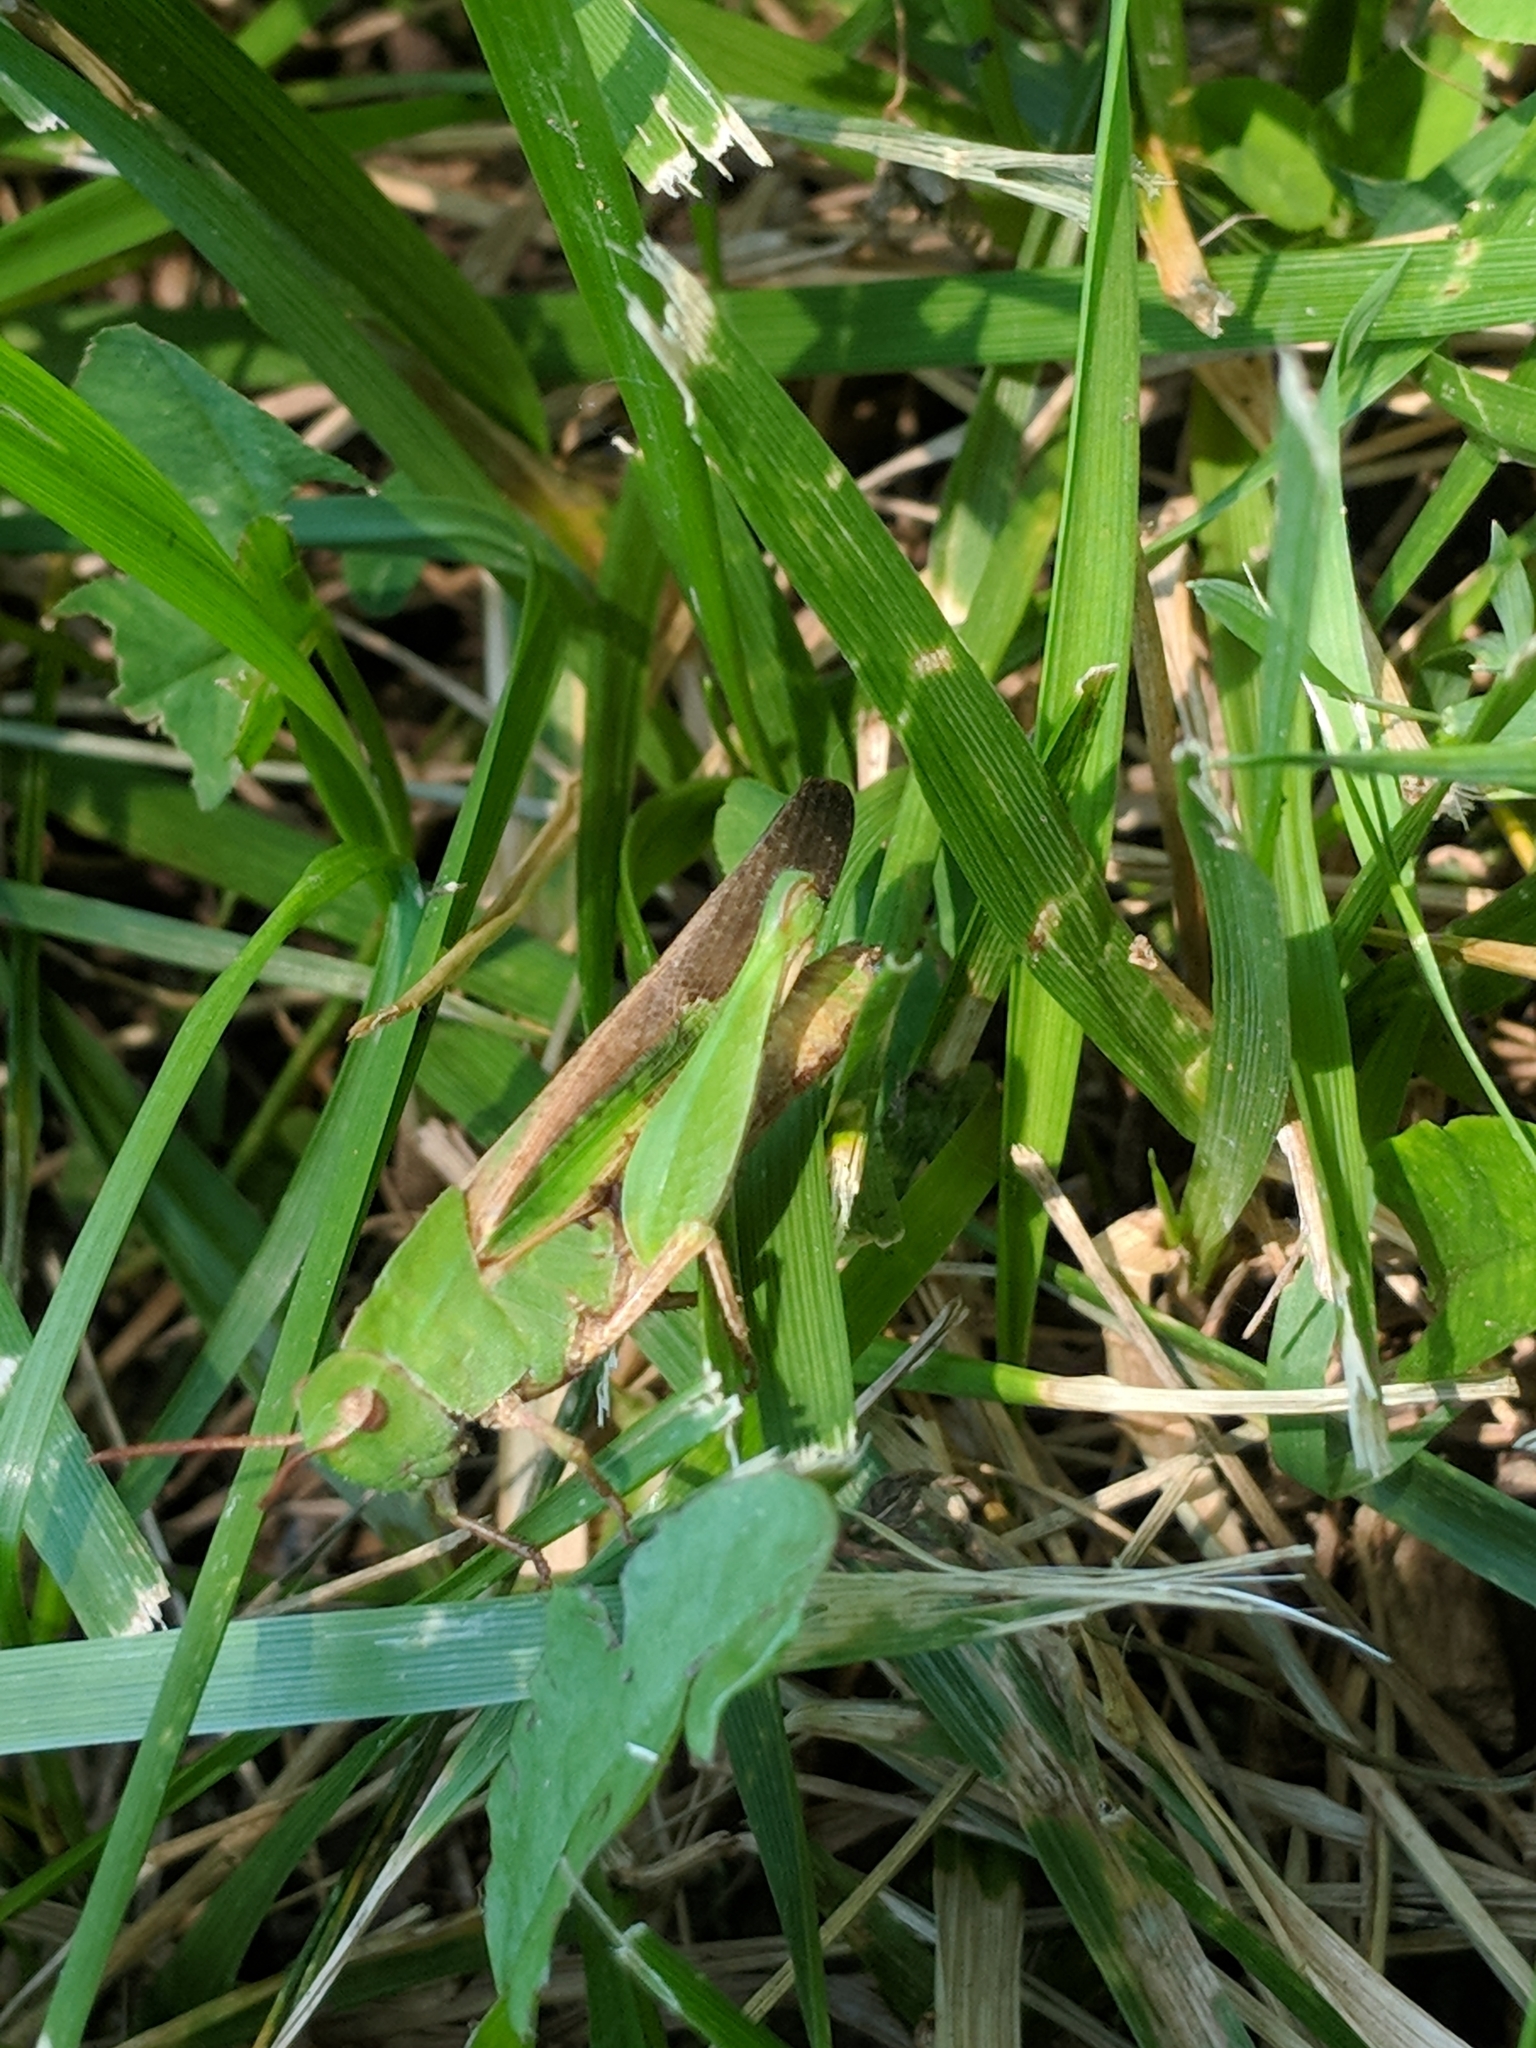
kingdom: Animalia
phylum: Arthropoda
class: Insecta
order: Orthoptera
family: Acrididae
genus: Chortophaga
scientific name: Chortophaga viridifasciata
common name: Green-striped grasshopper
